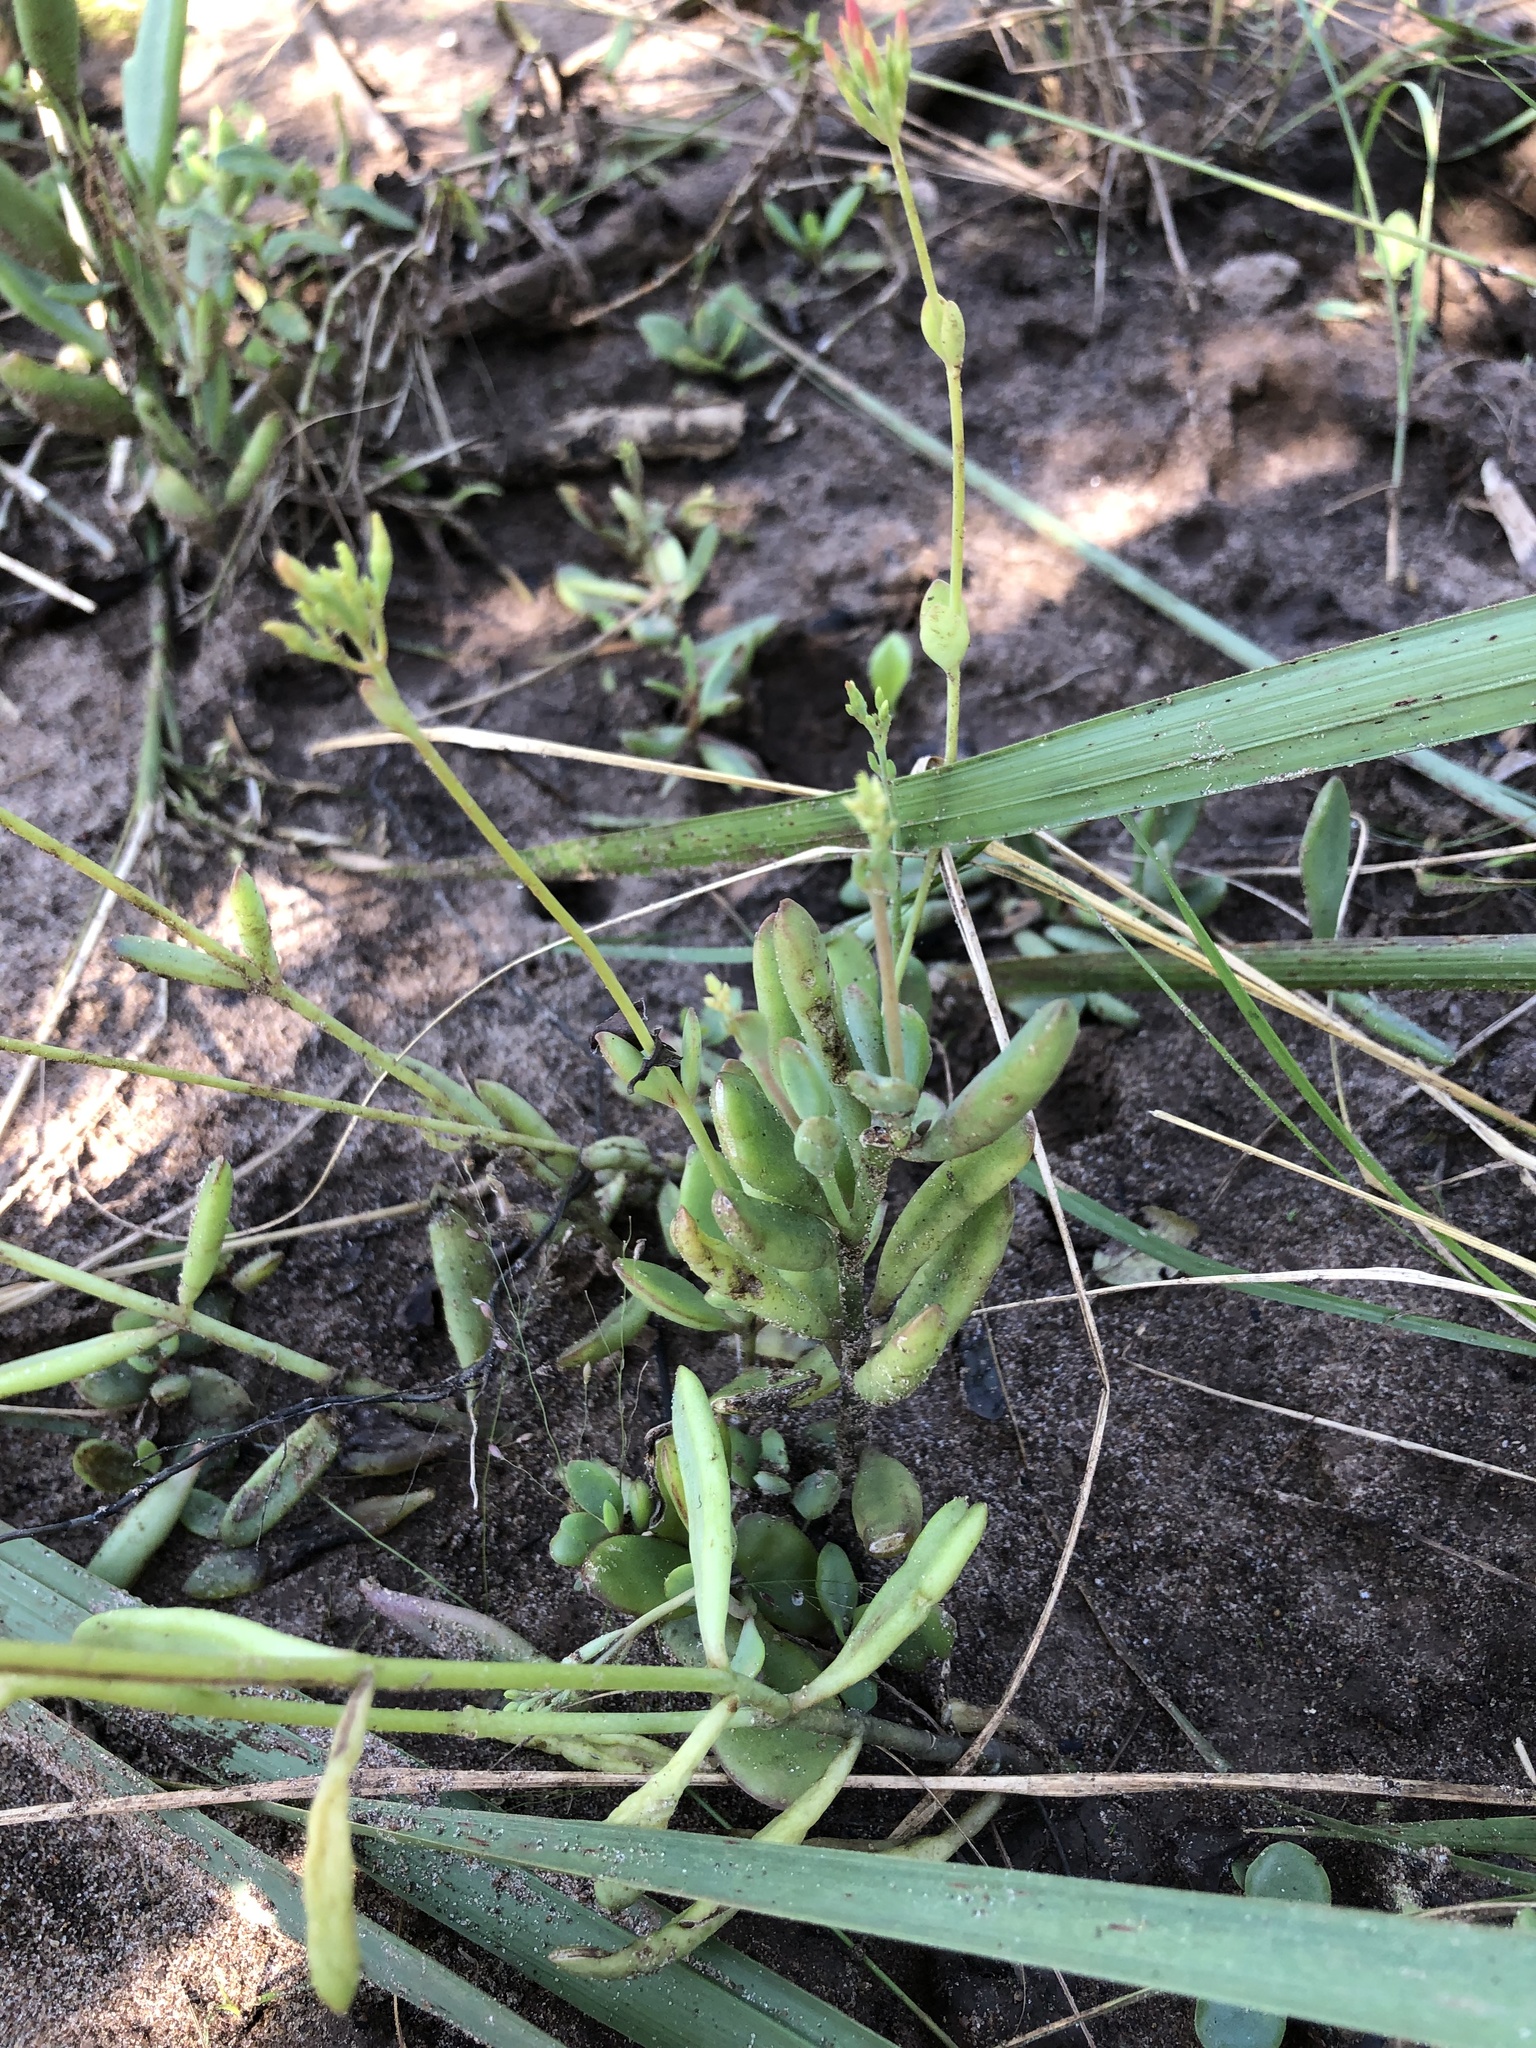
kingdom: Plantae
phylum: Tracheophyta
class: Magnoliopsida
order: Saxifragales
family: Crassulaceae
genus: Kalanchoe
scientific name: Kalanchoe rotundifolia
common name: Common kalanchoe
